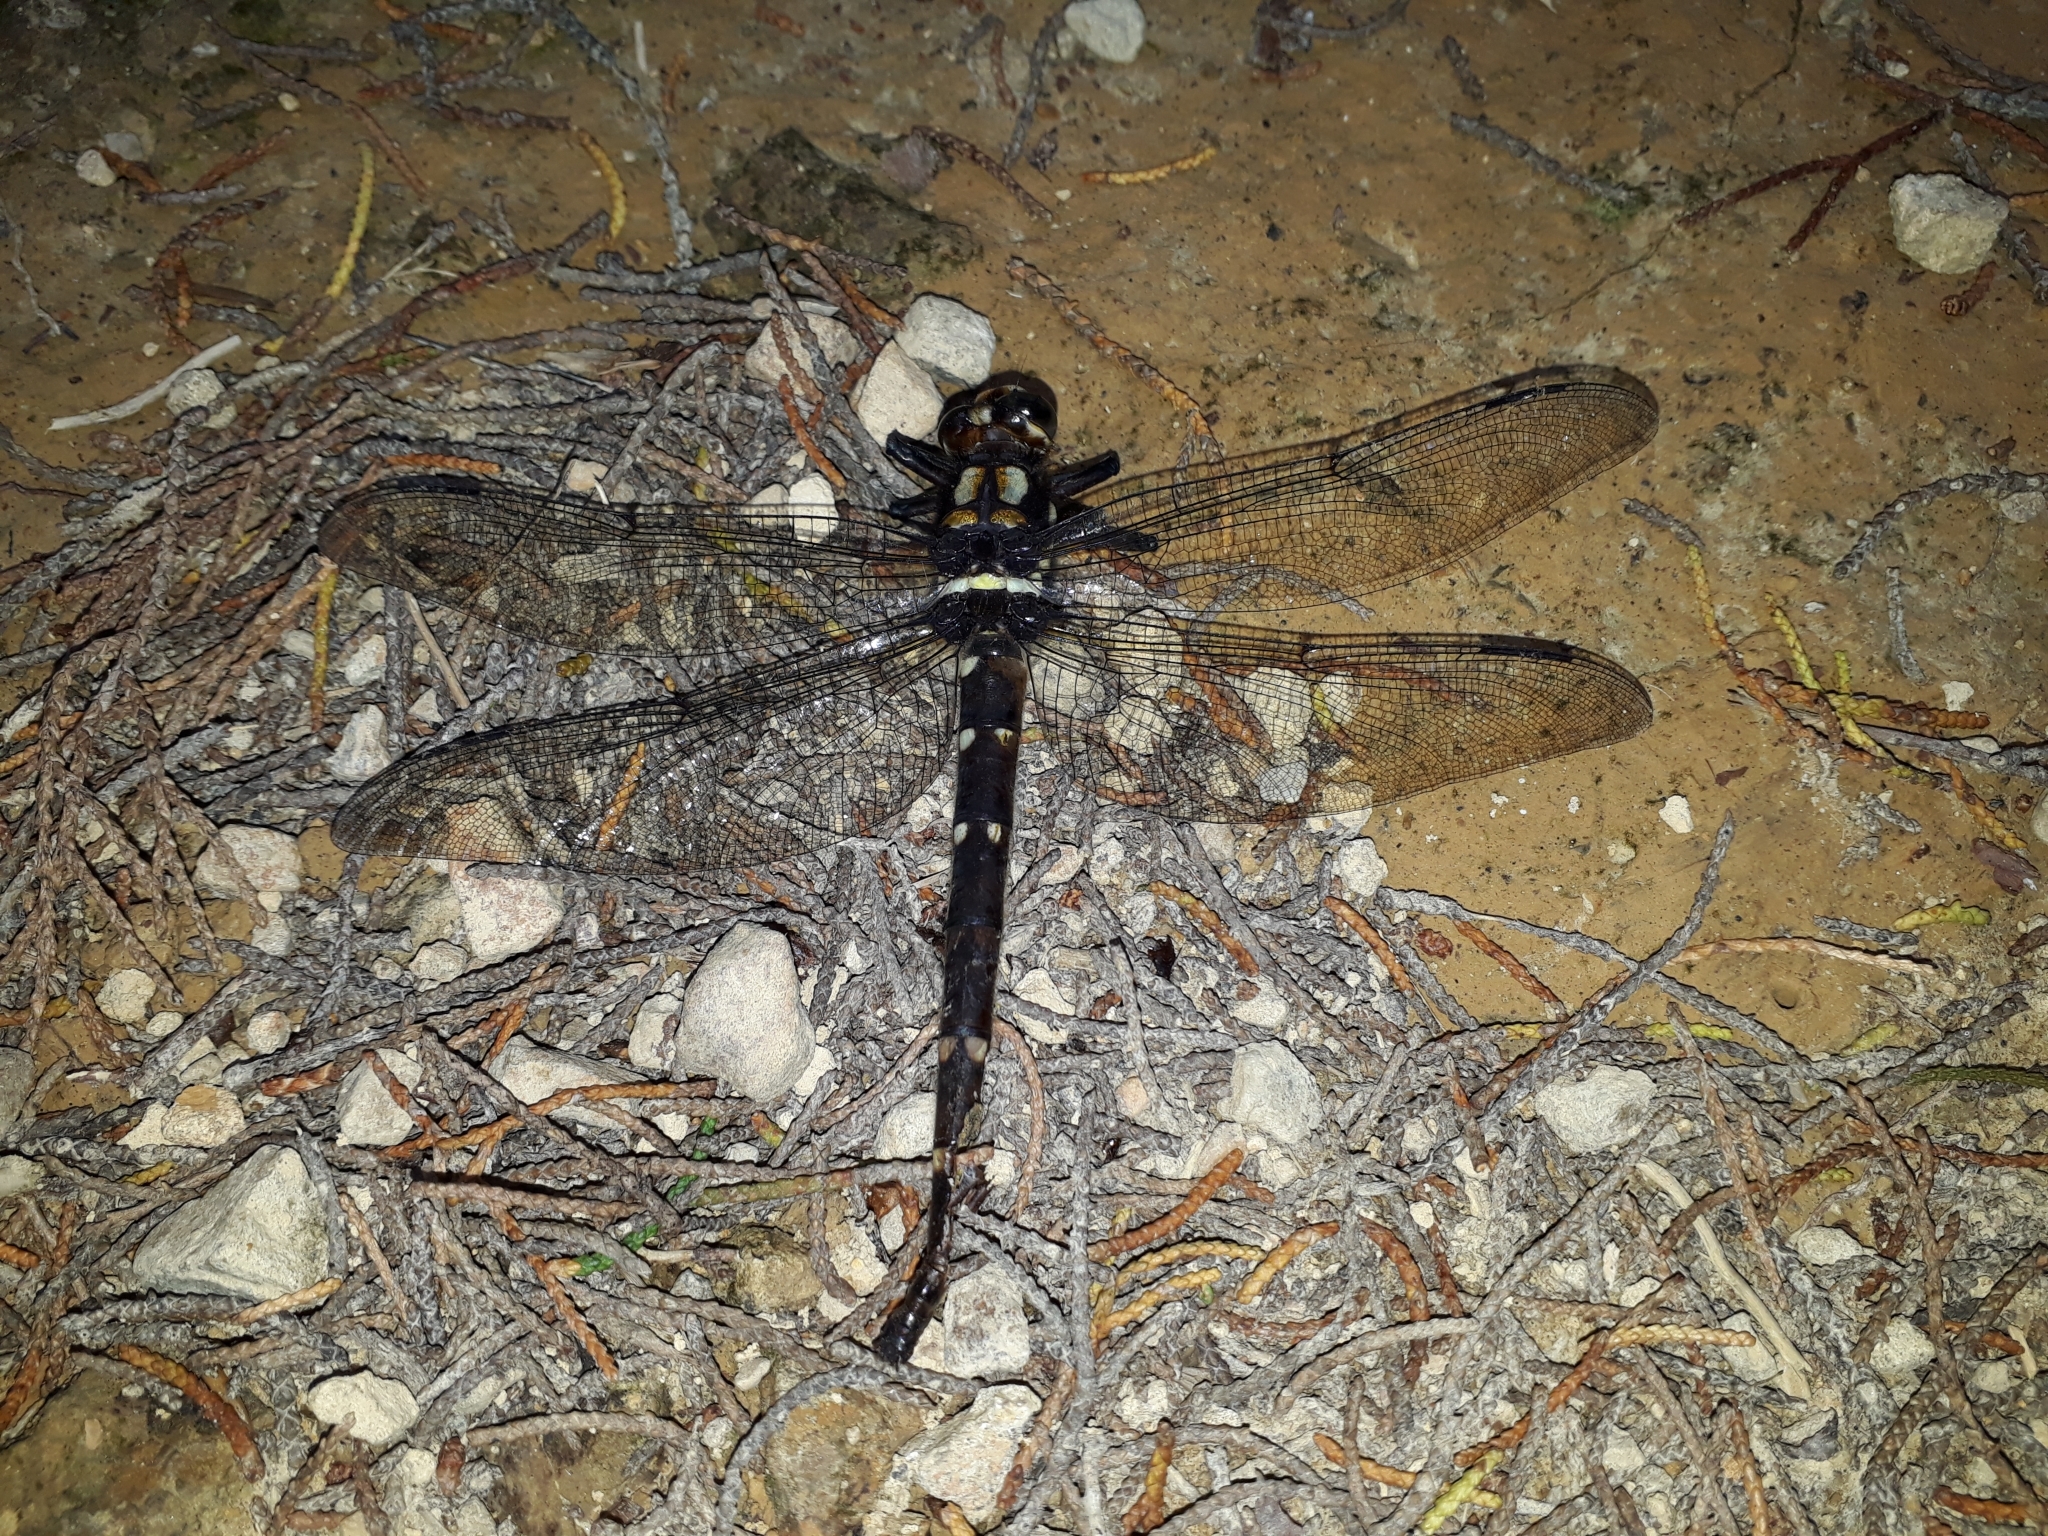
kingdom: Animalia
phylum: Arthropoda
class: Insecta
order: Odonata
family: Petaluridae
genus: Uropetala
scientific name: Uropetala carovei
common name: Bush giant dragonfly
